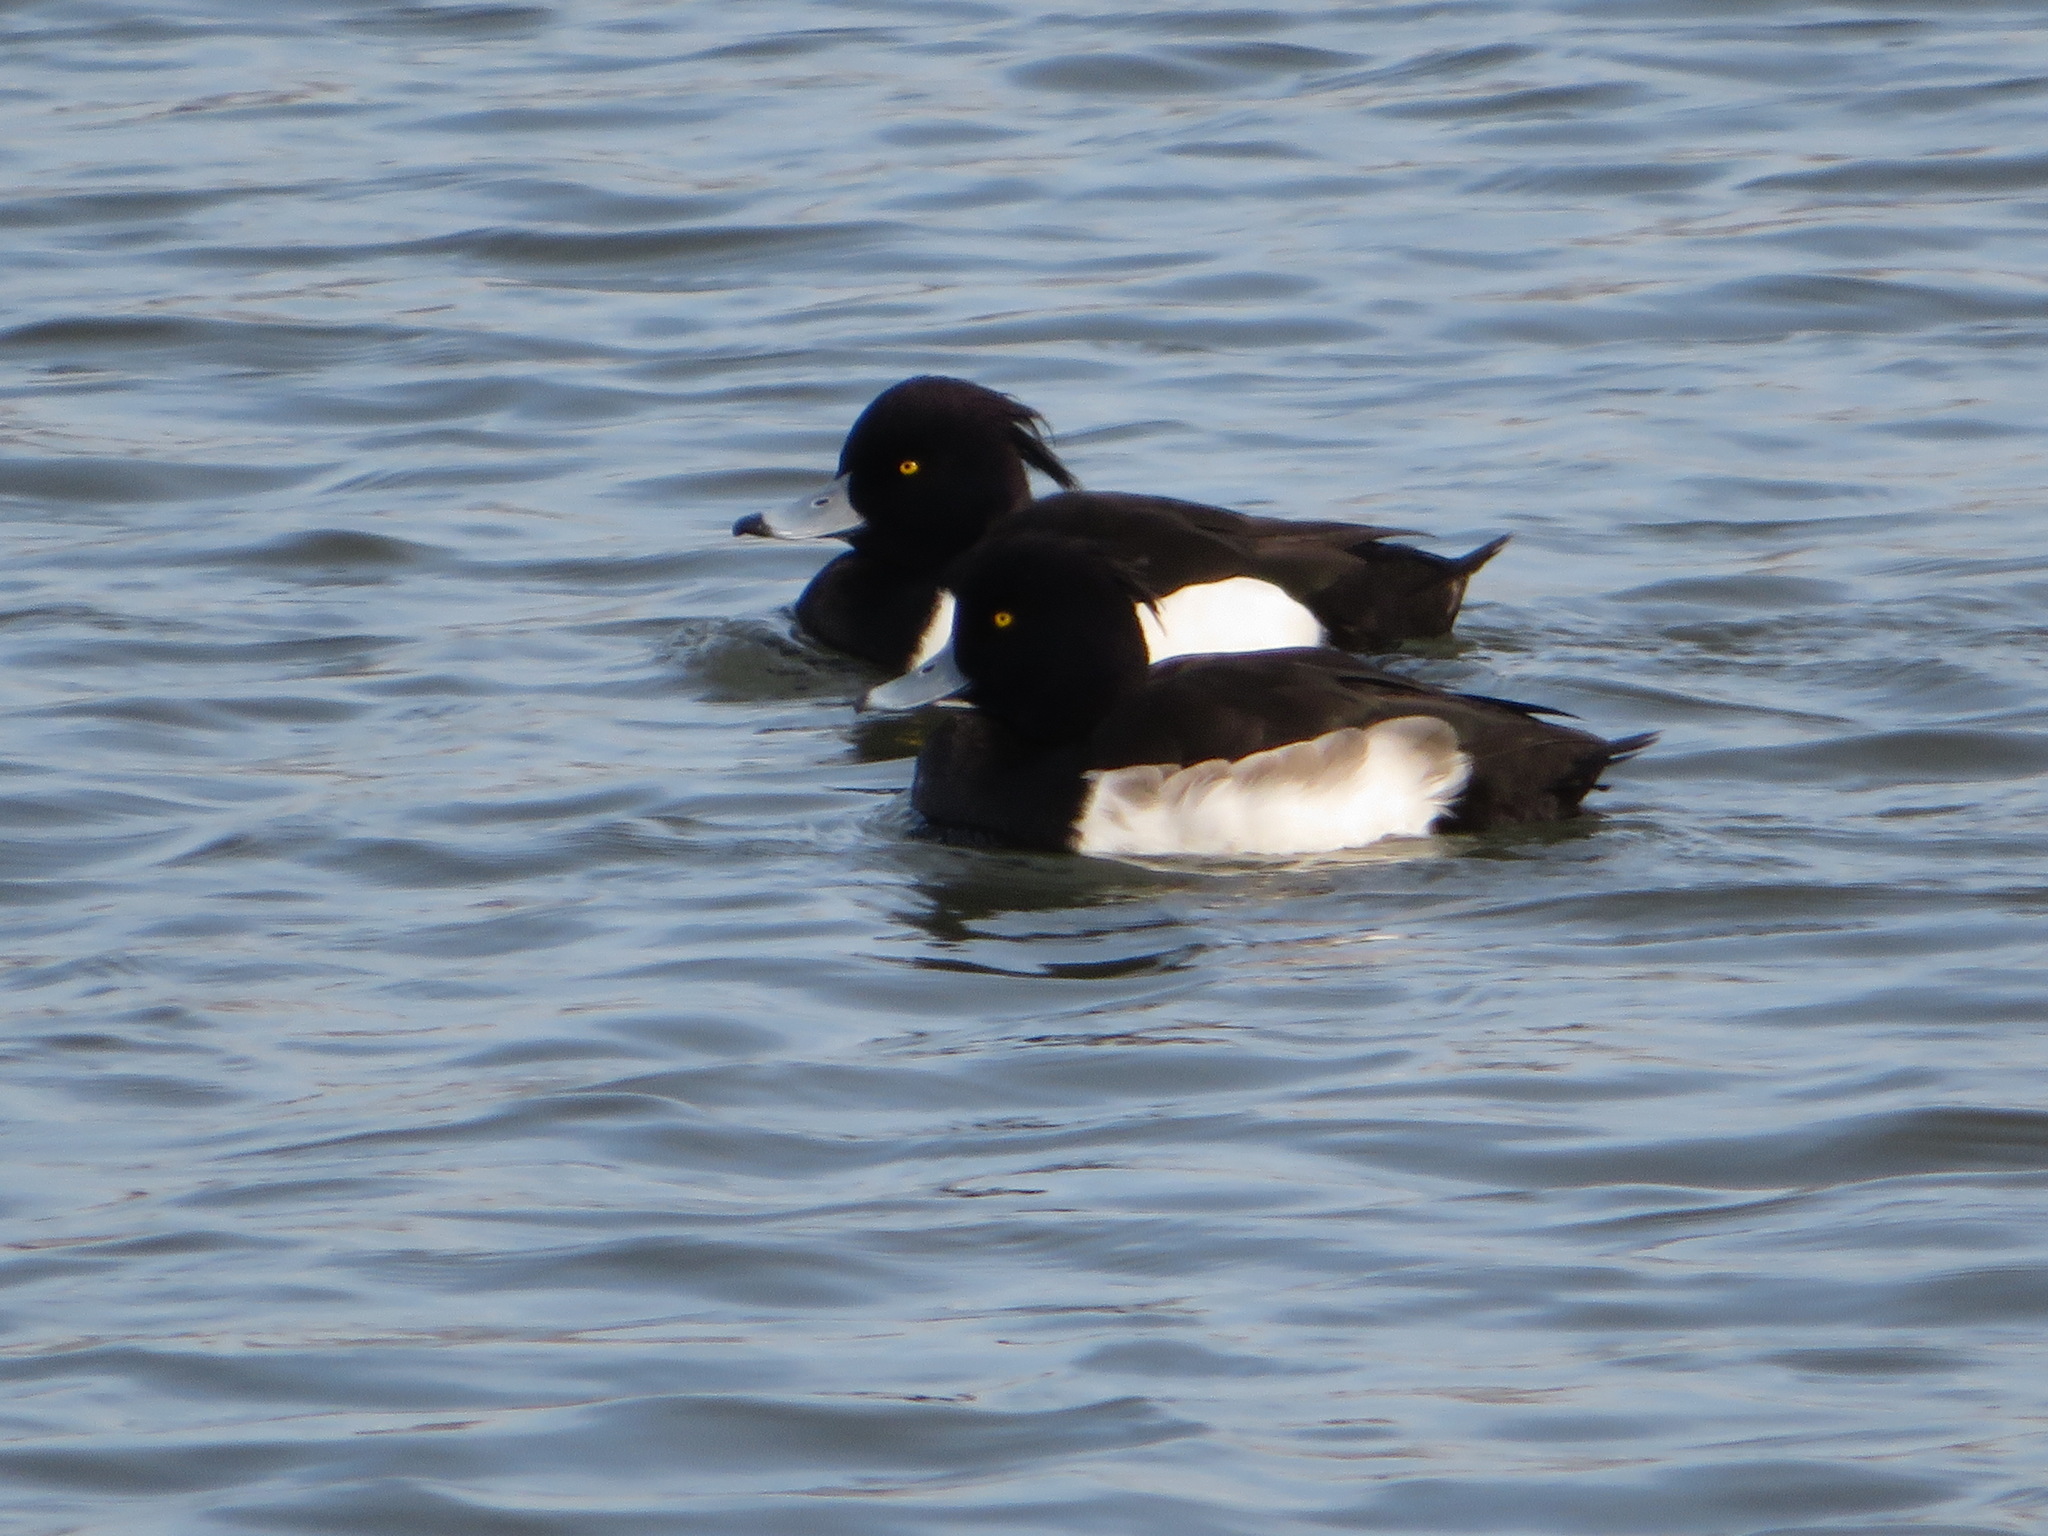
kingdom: Animalia
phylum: Chordata
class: Aves
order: Anseriformes
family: Anatidae
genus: Aythya
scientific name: Aythya fuligula
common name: Tufted duck
